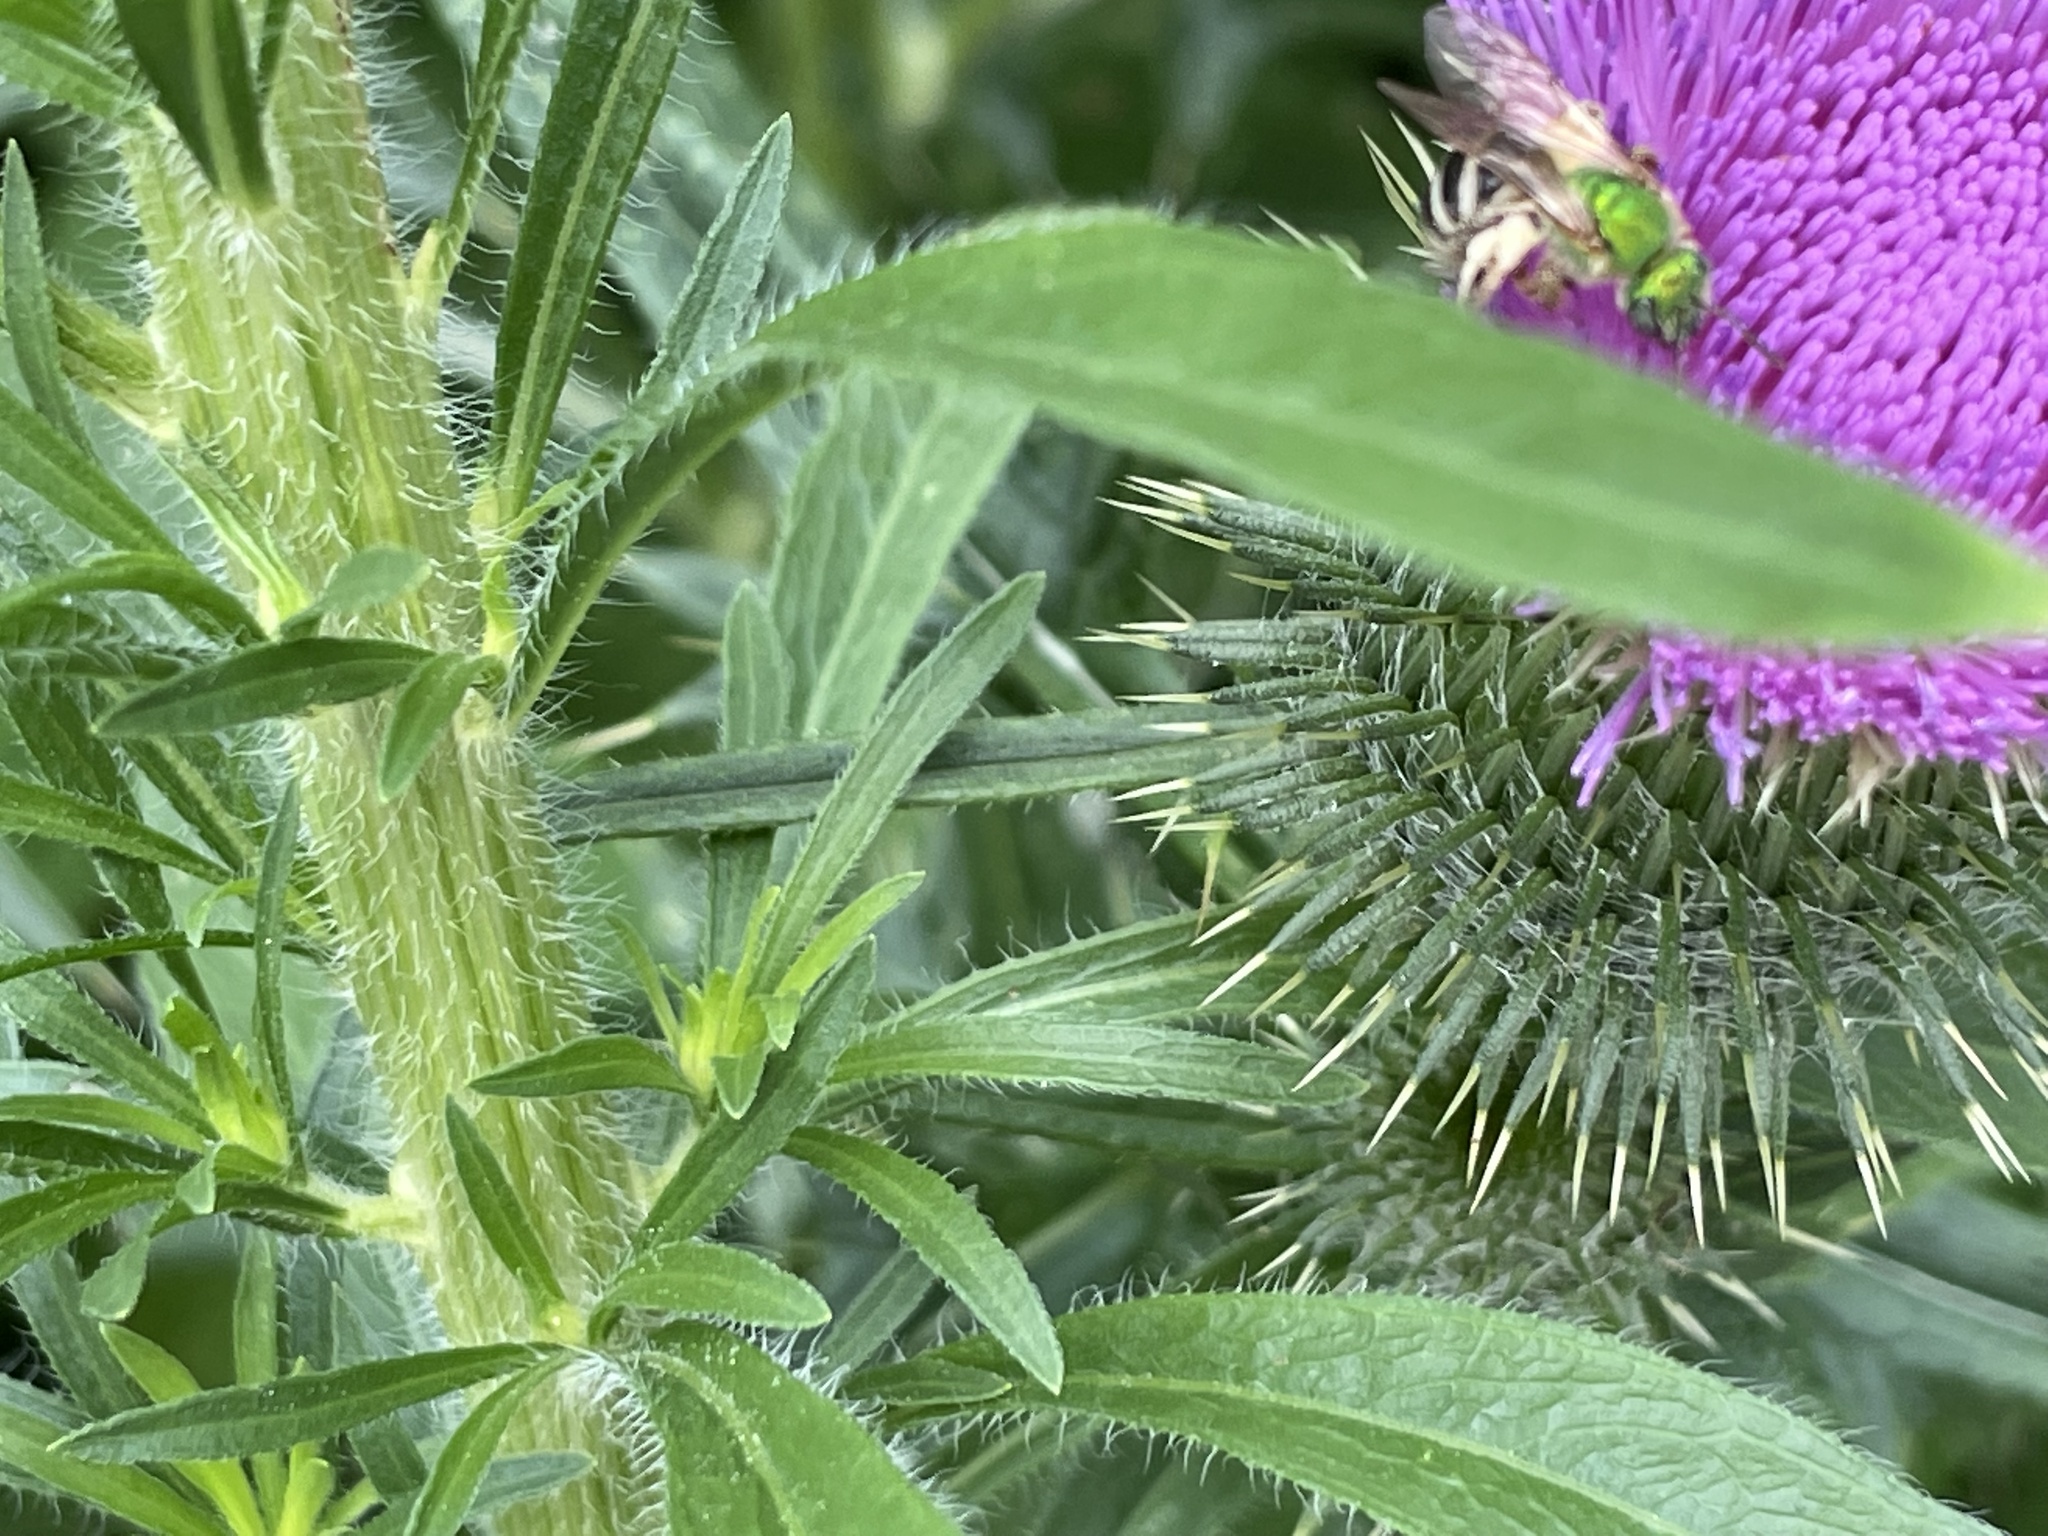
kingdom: Animalia
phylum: Arthropoda
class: Insecta
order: Hymenoptera
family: Halictidae
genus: Agapostemon
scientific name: Agapostemon virescens
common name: Bicolored striped sweat bee
